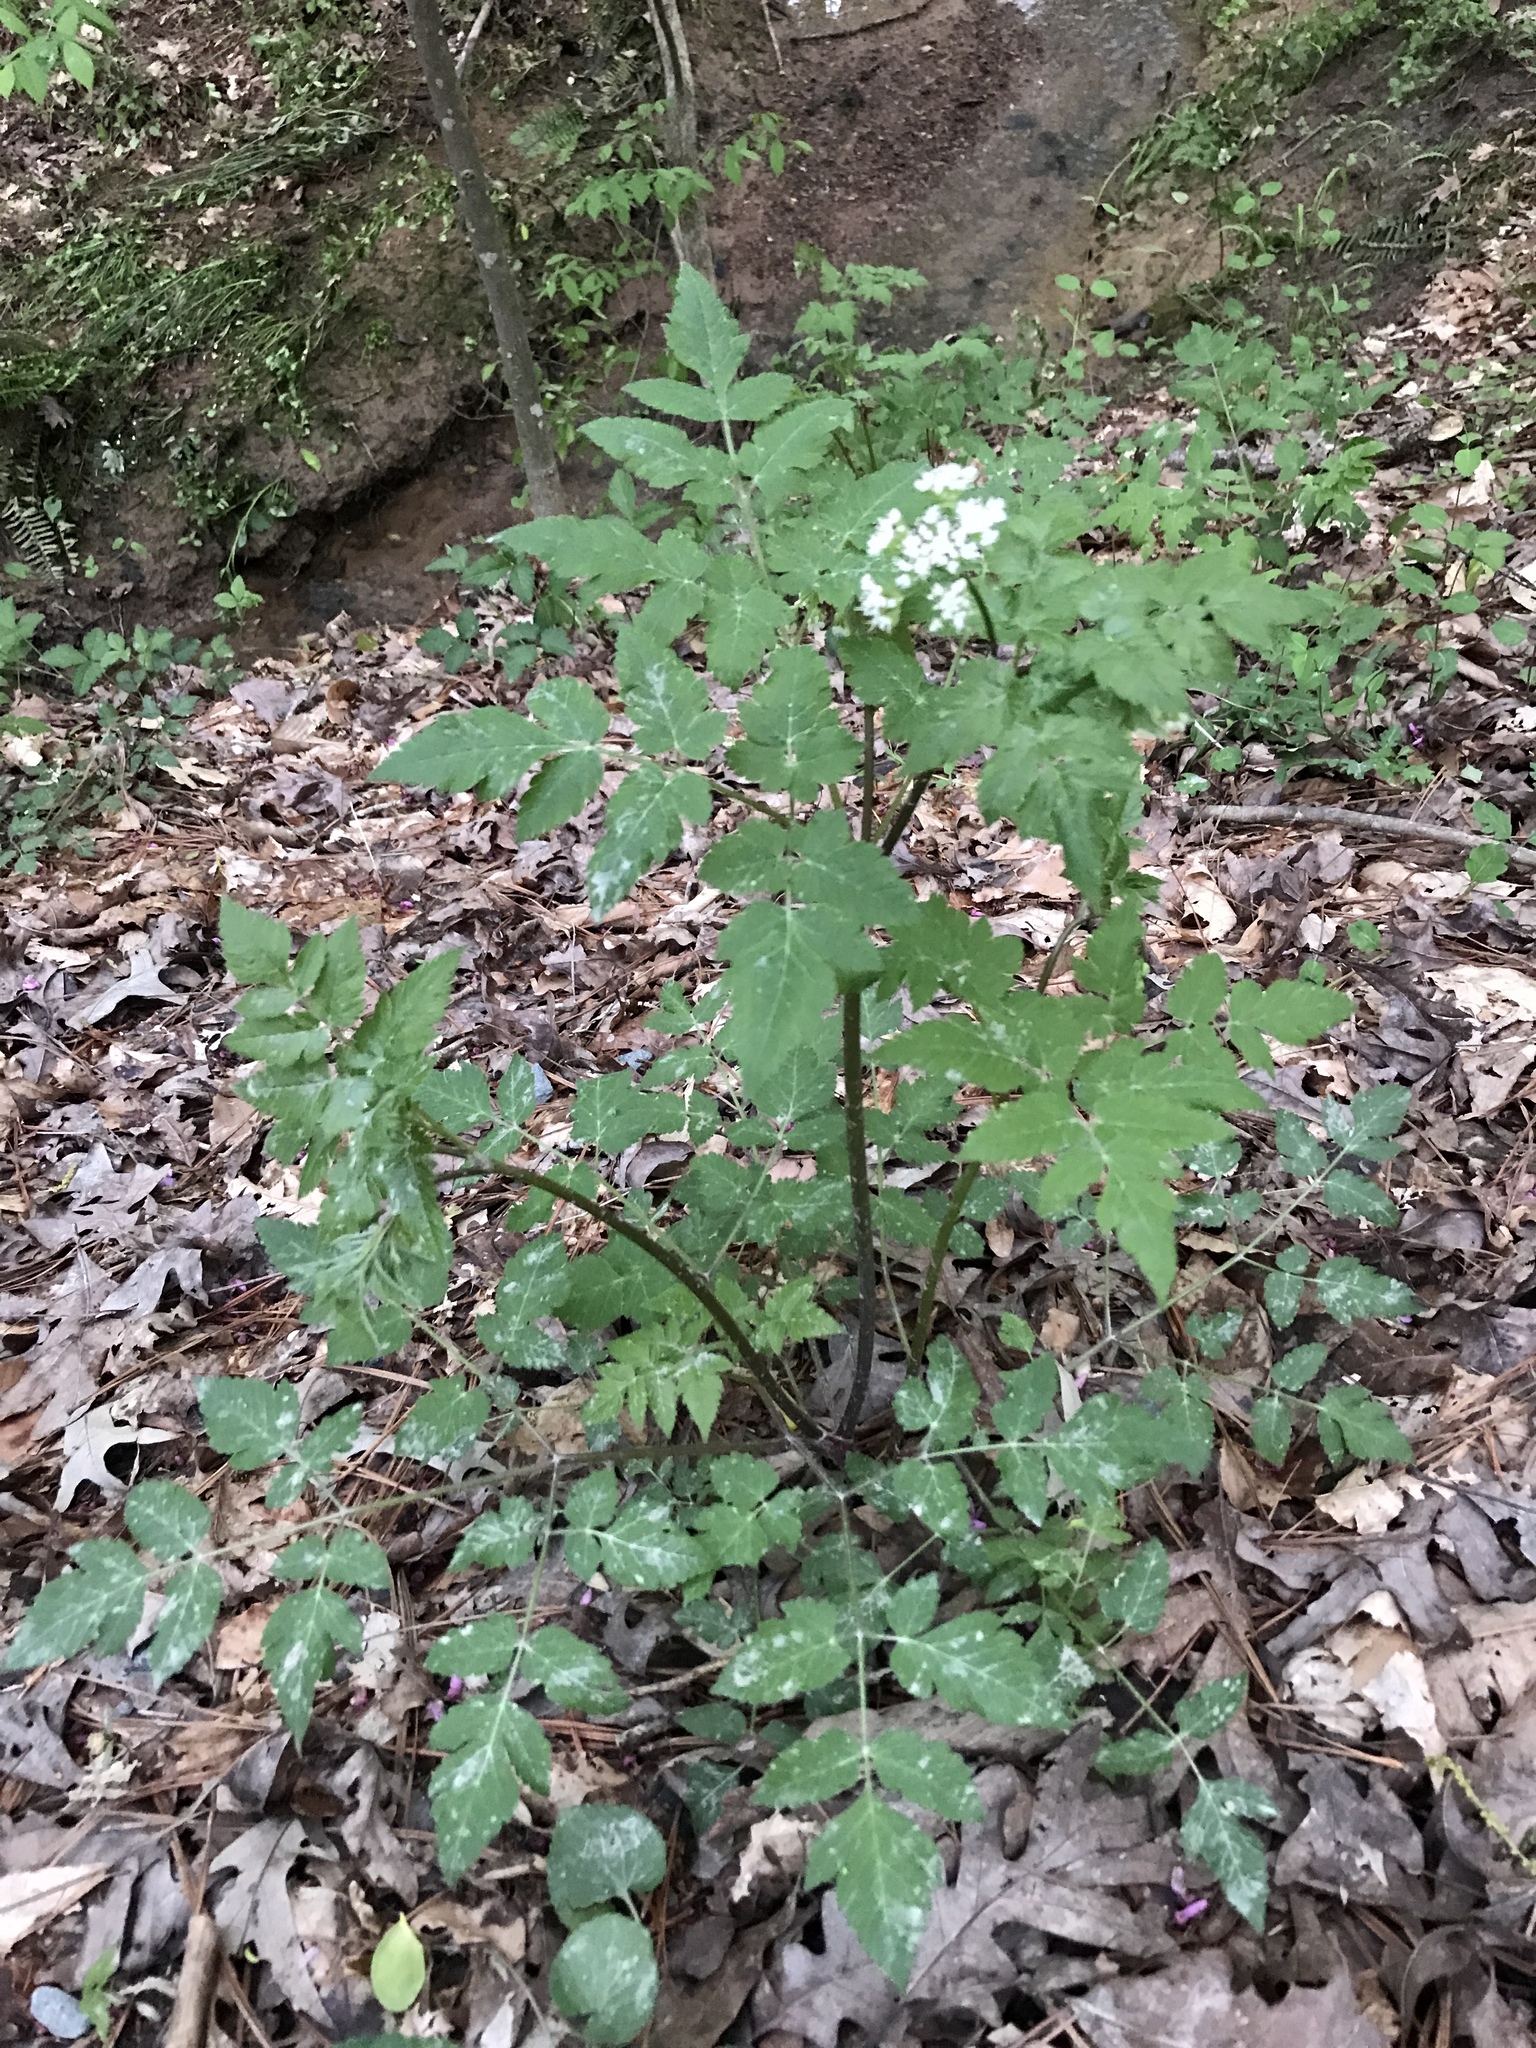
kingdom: Plantae
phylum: Tracheophyta
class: Magnoliopsida
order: Apiales
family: Apiaceae
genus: Osmorhiza
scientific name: Osmorhiza longistylis
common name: Smooth sweet cicely
